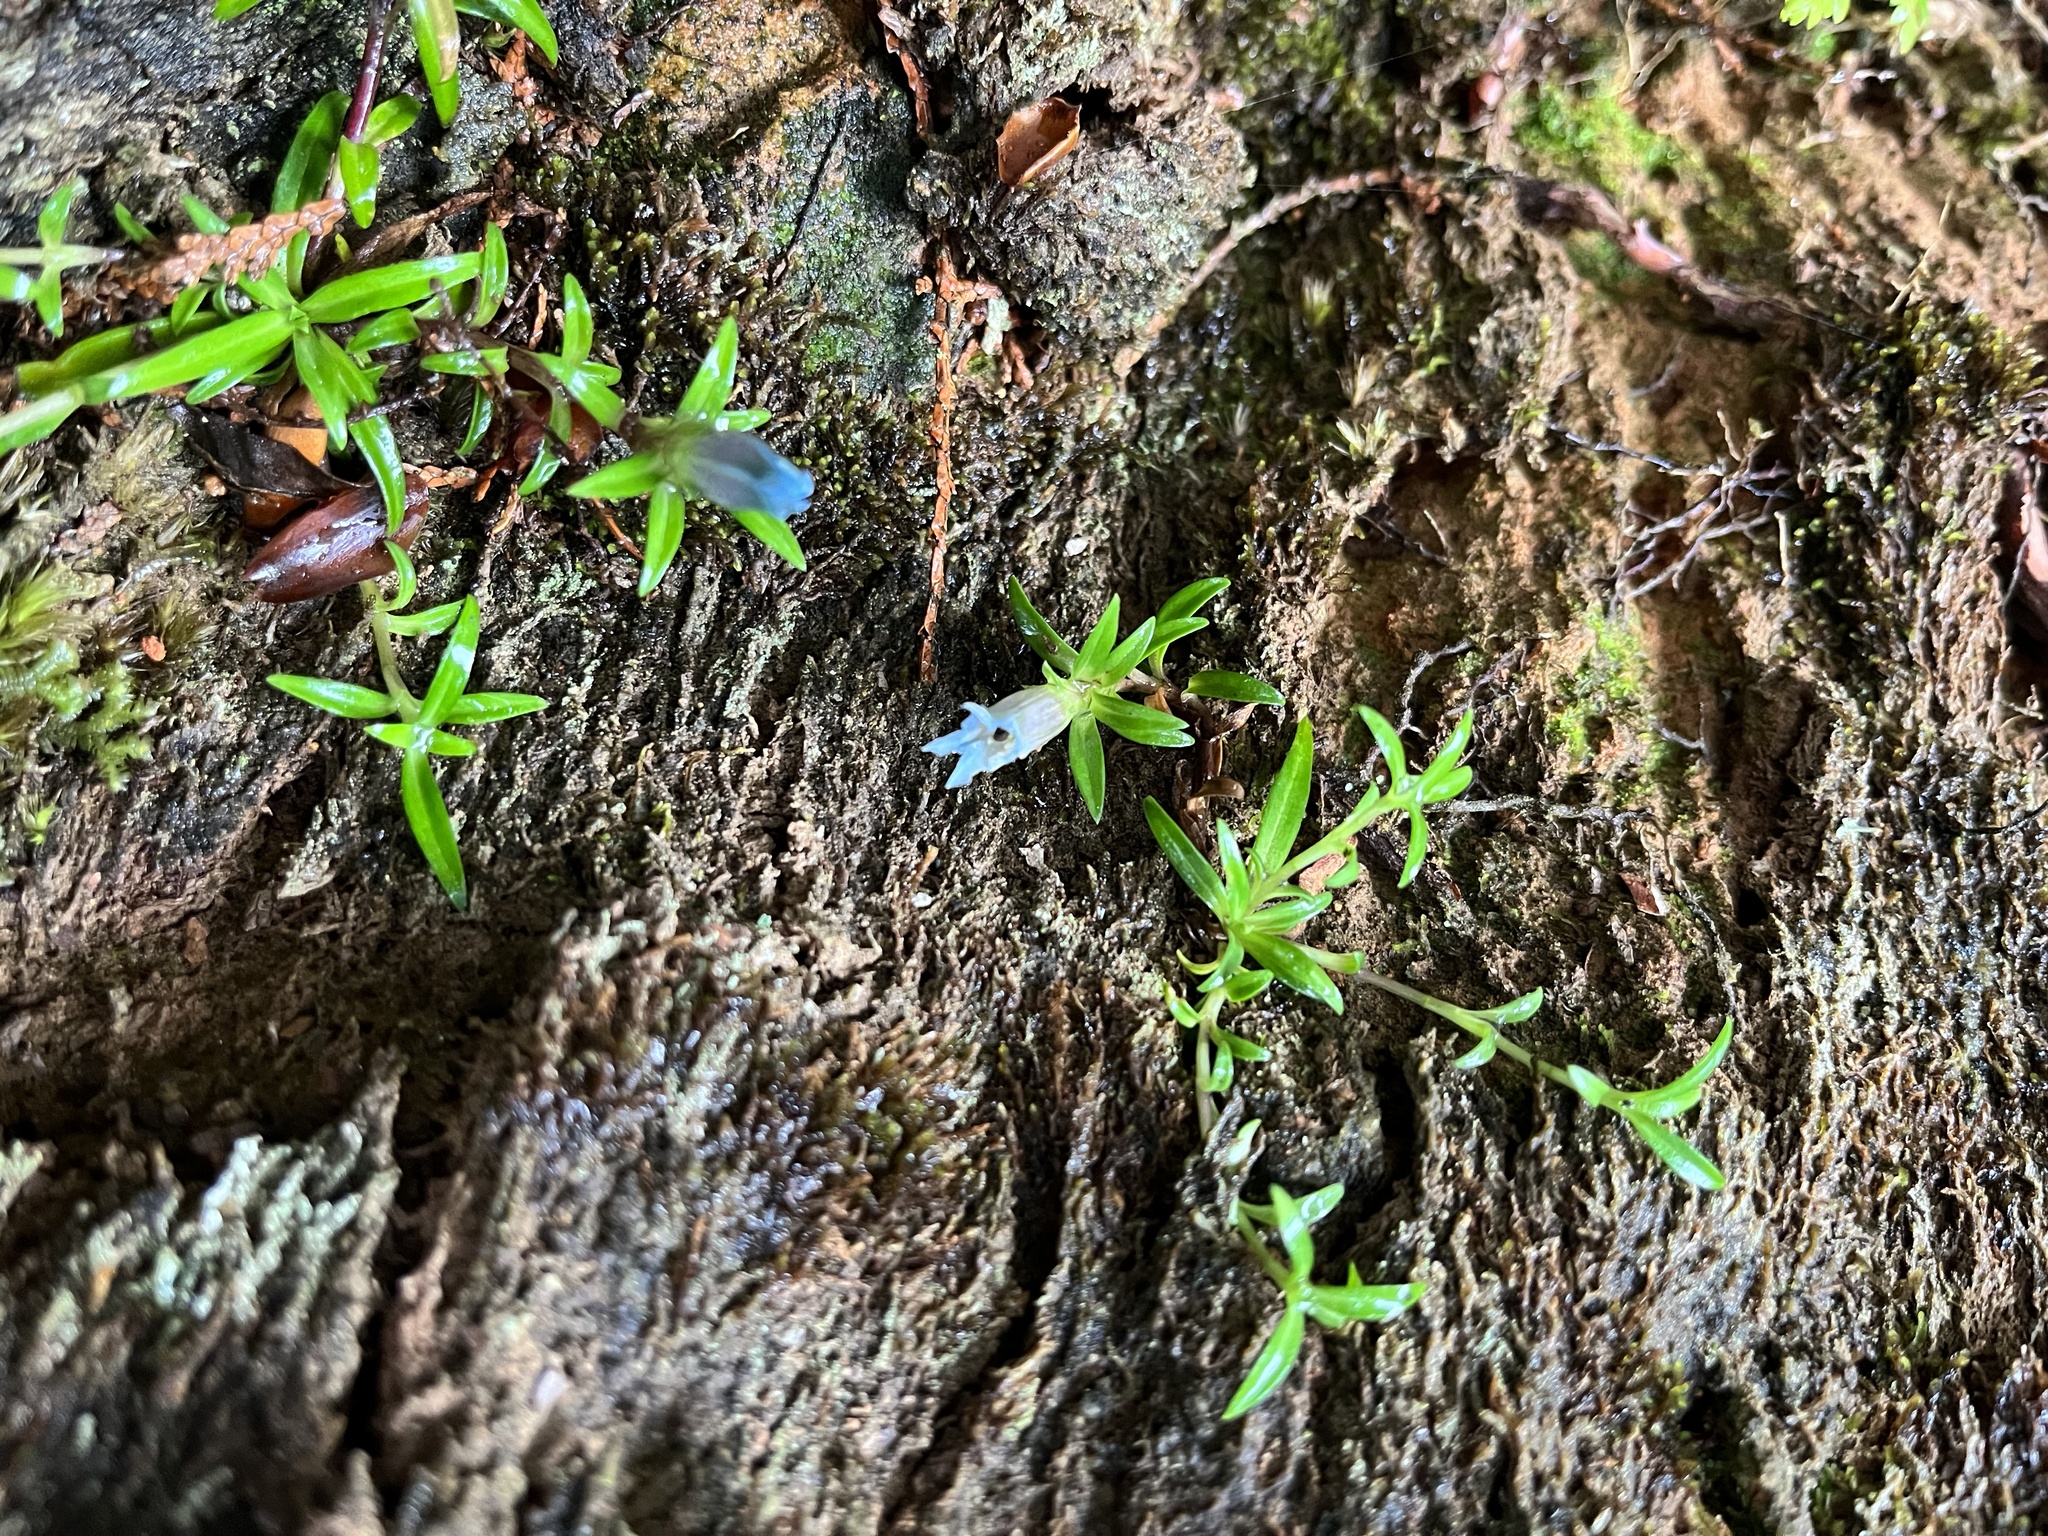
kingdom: Plantae
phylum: Tracheophyta
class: Magnoliopsida
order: Gentianales
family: Gentianaceae
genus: Gentiana
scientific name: Gentiana davidii
